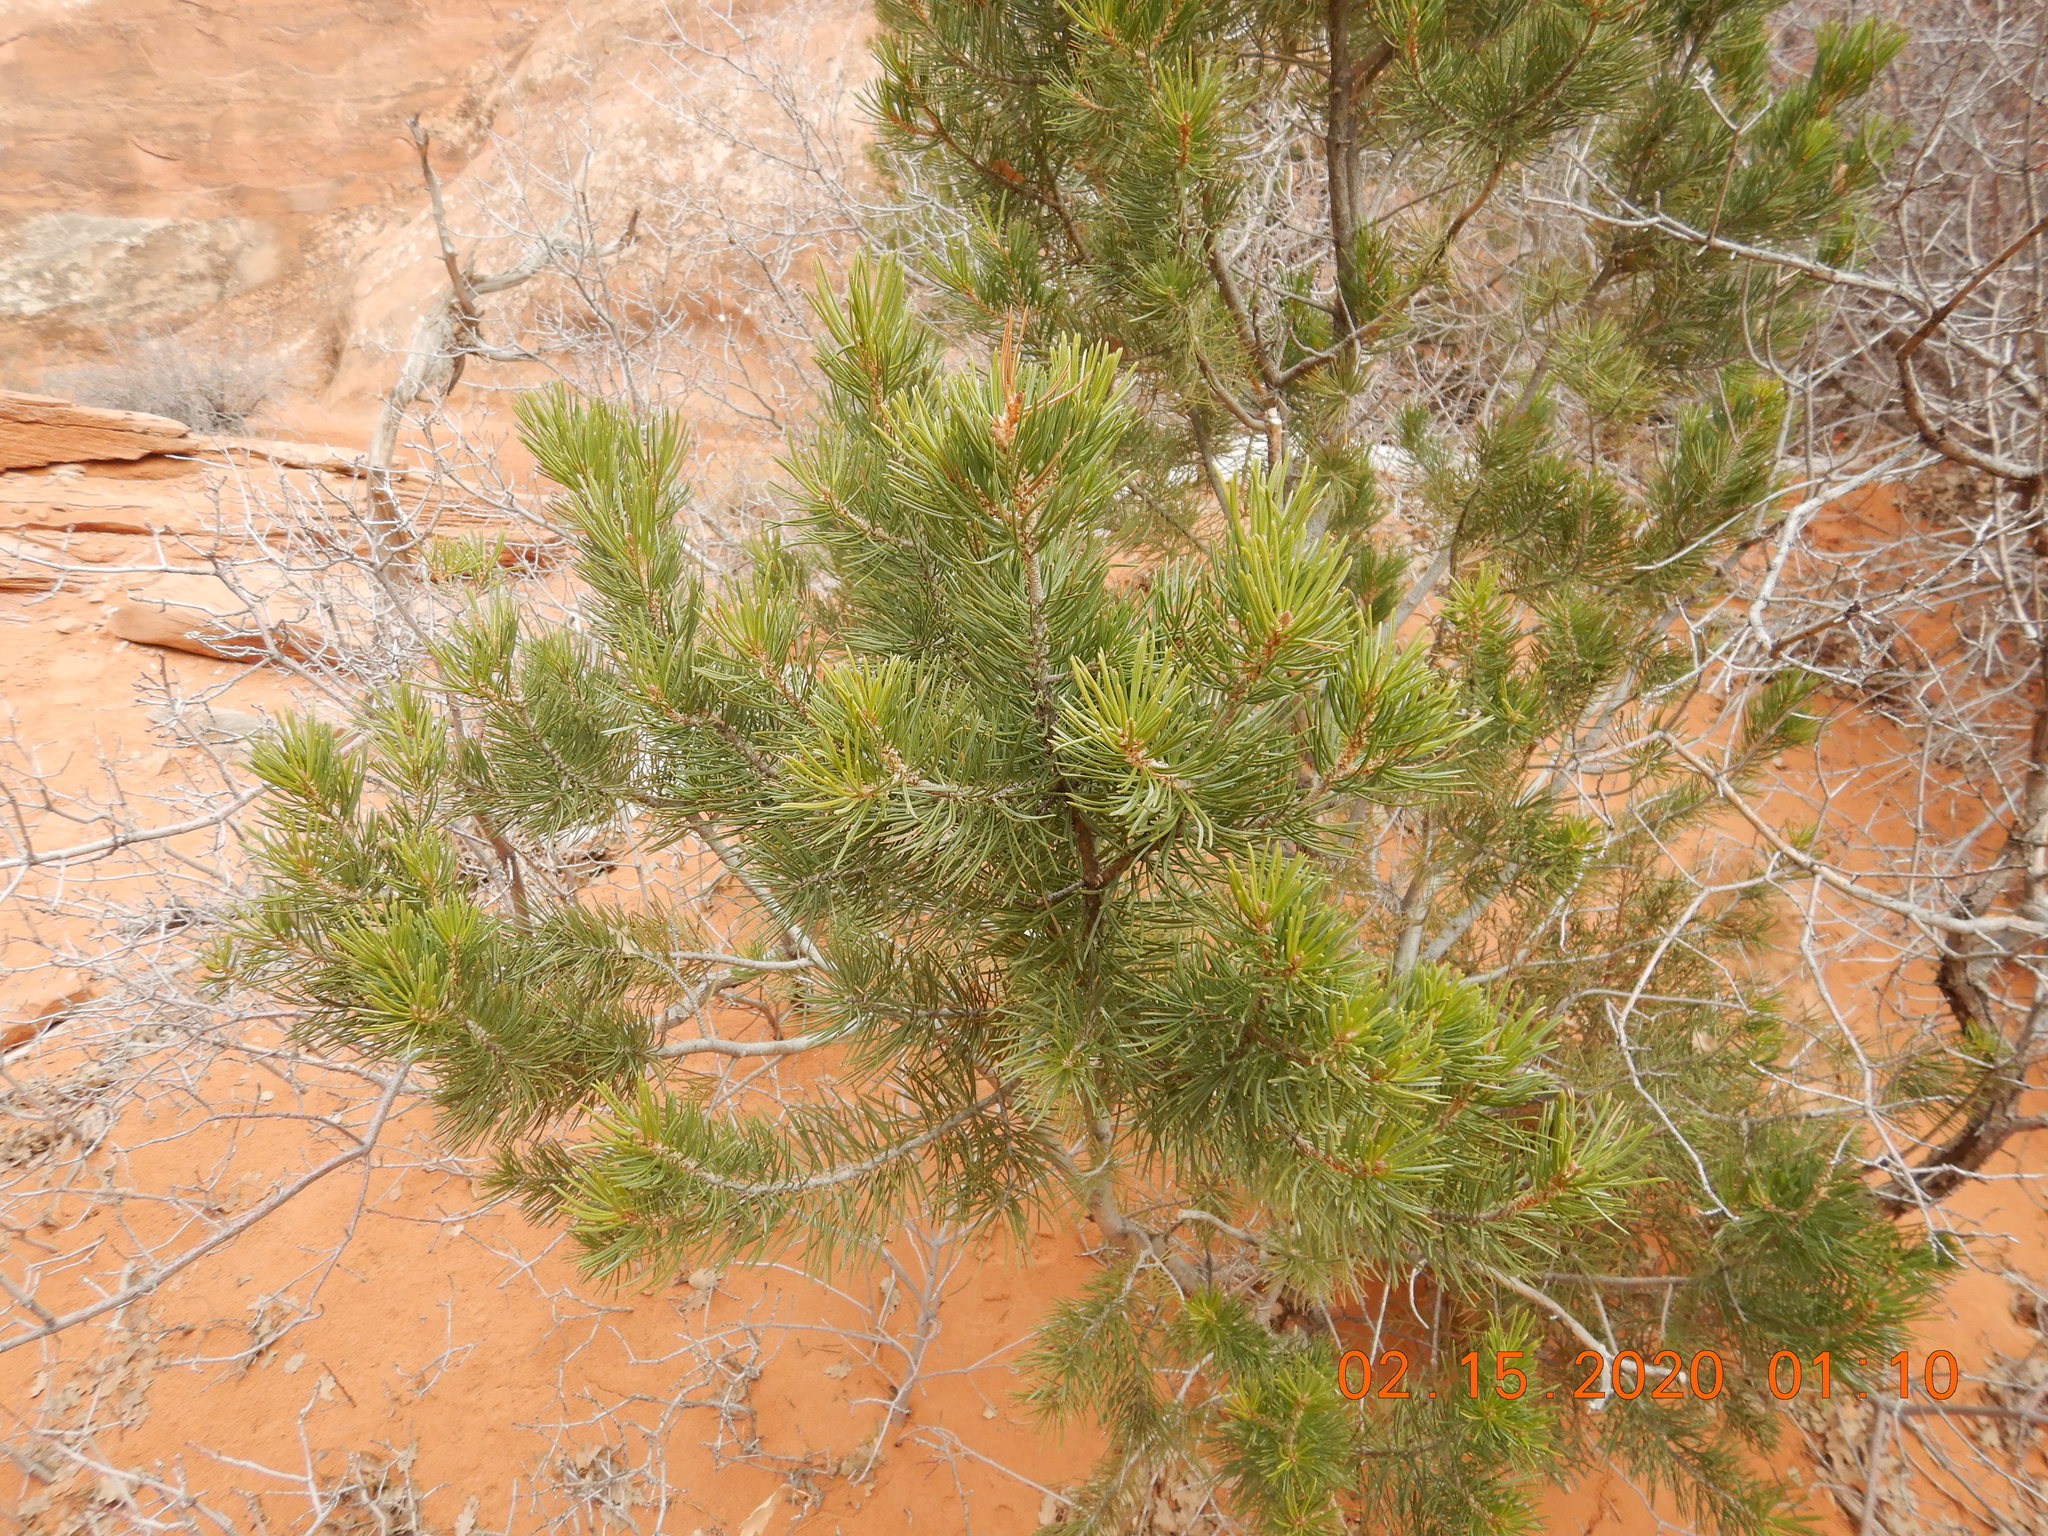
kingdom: Plantae
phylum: Tracheophyta
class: Pinopsida
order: Pinales
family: Pinaceae
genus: Pinus
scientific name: Pinus edulis
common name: Colorado pinyon
